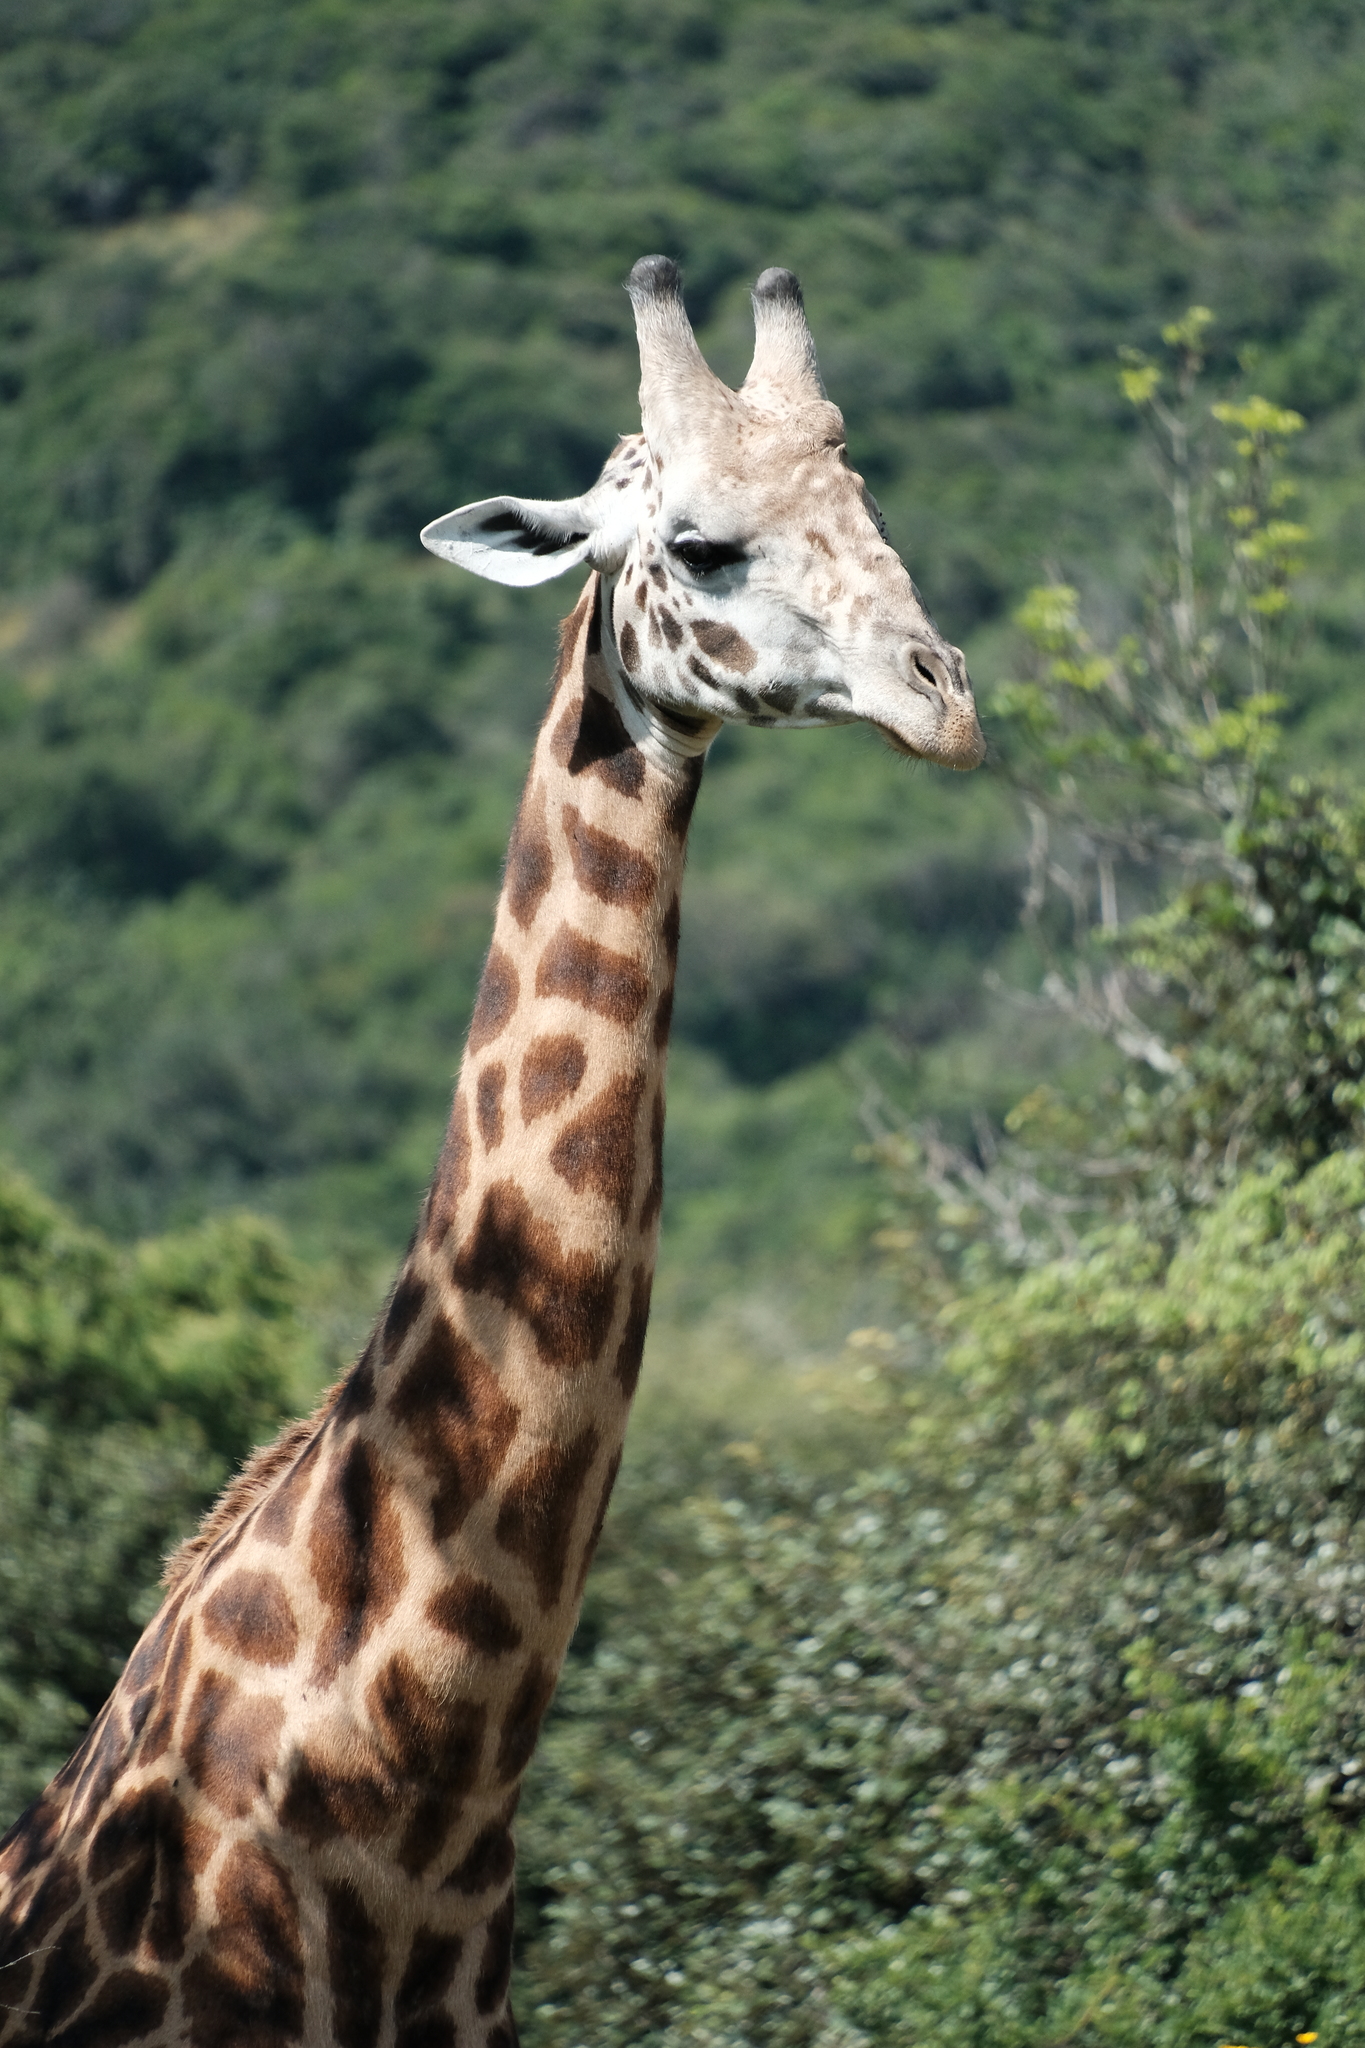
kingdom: Animalia
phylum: Chordata
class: Mammalia
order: Artiodactyla
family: Giraffidae
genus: Giraffa
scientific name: Giraffa tippelskirchi
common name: Masai giraffe
